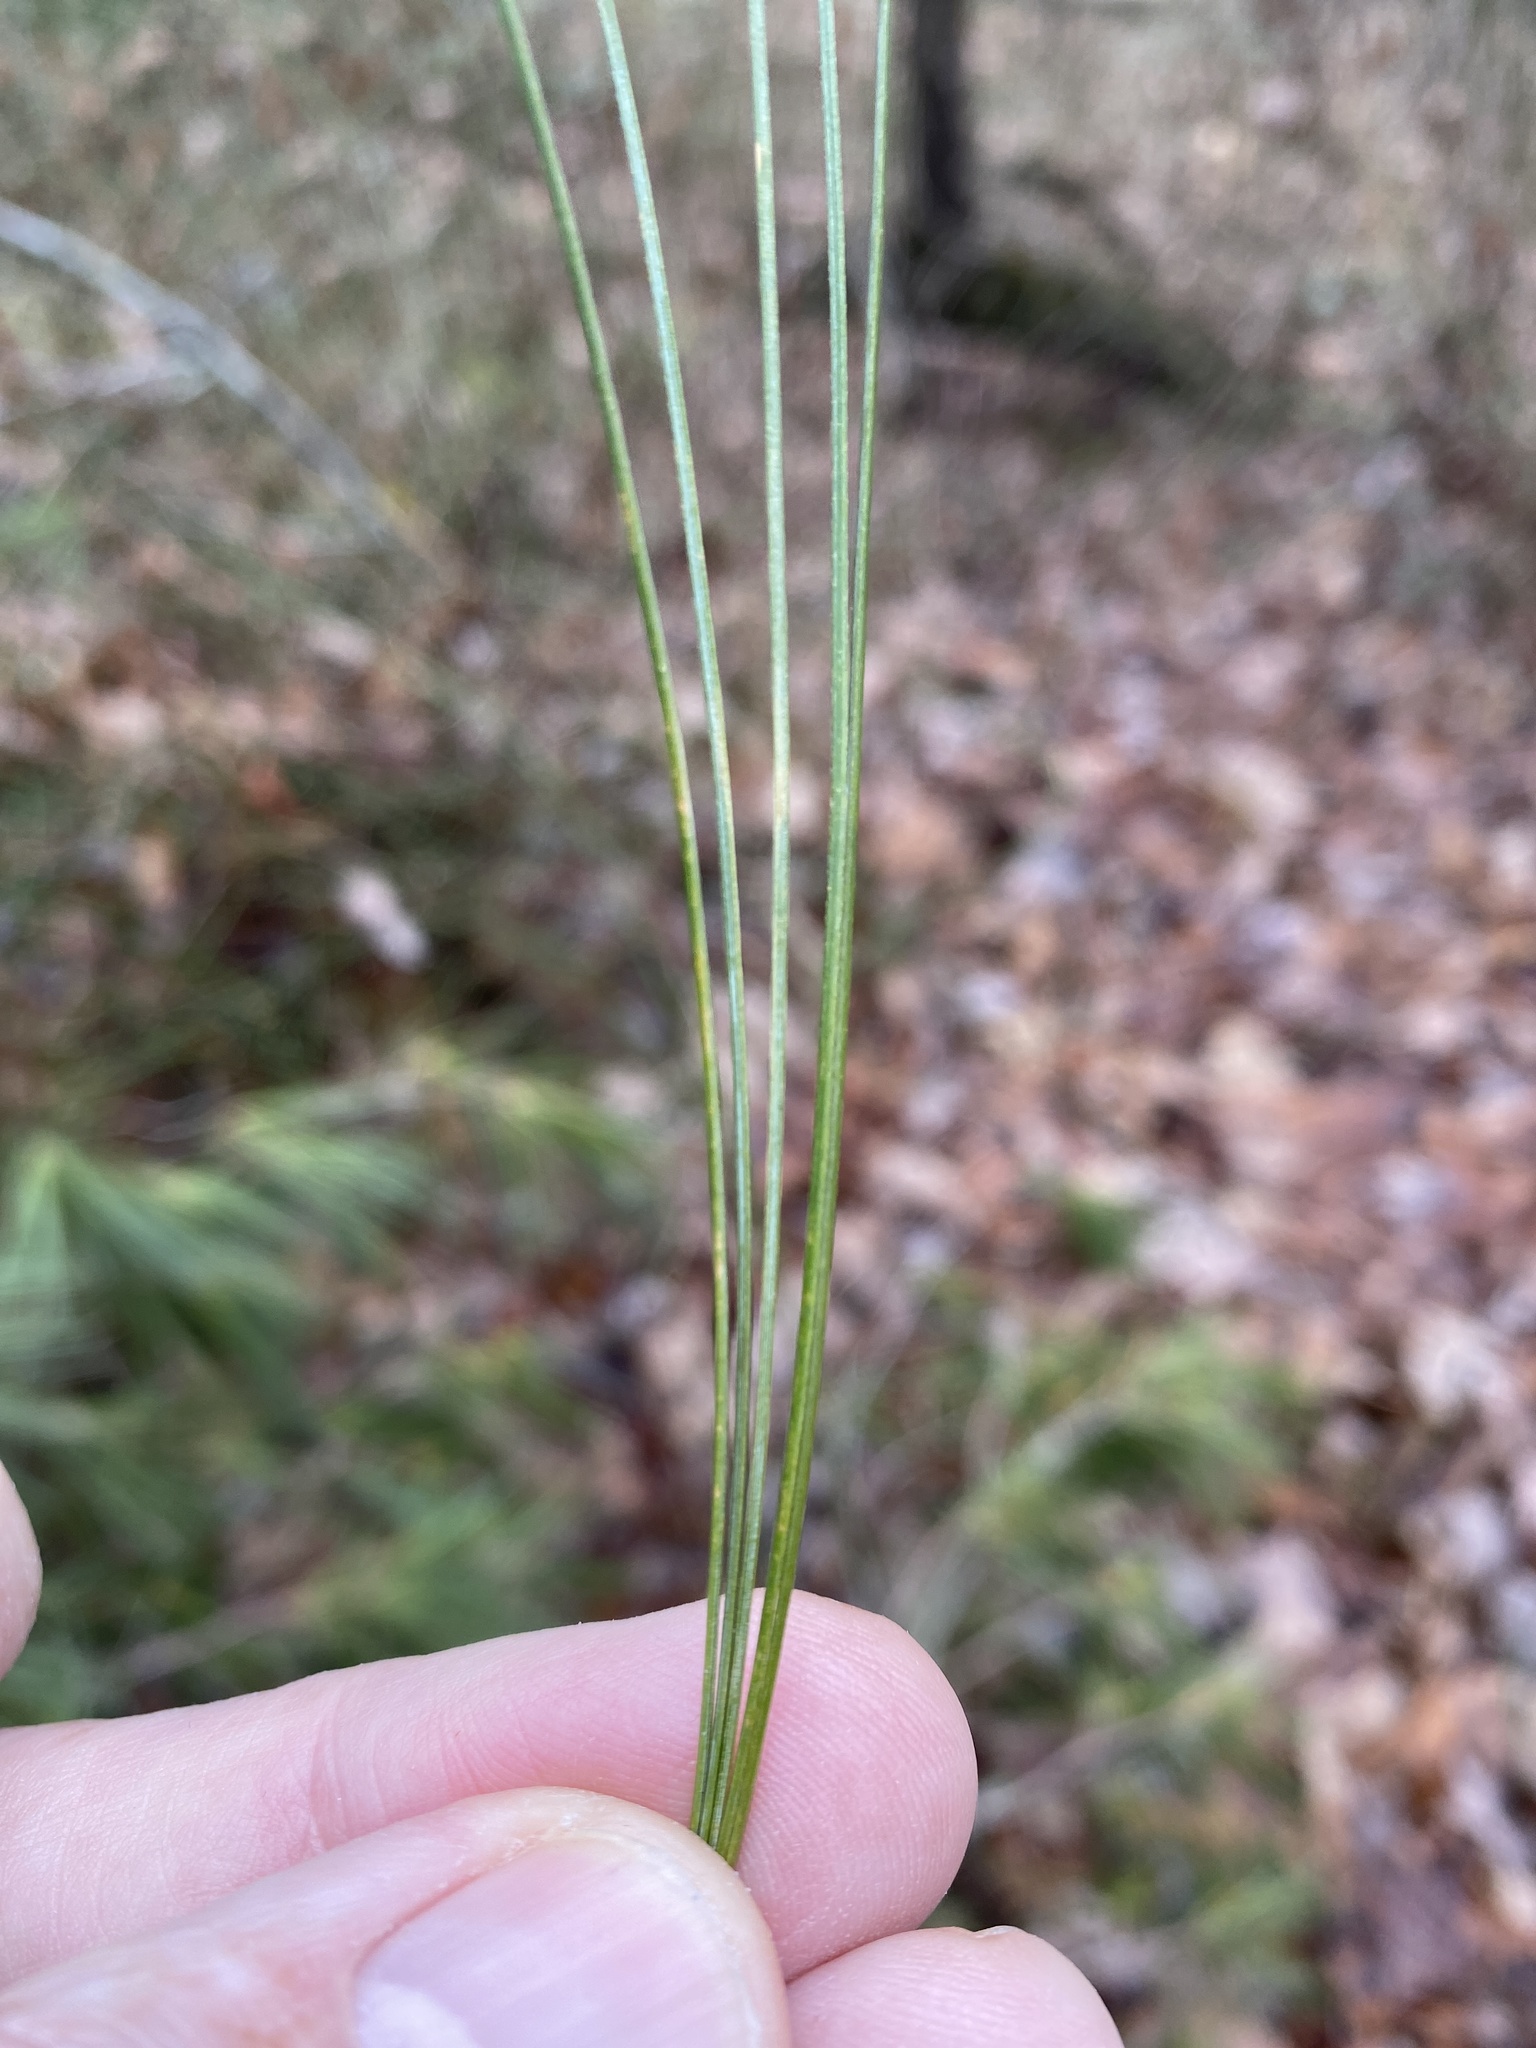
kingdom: Plantae
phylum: Tracheophyta
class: Pinopsida
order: Pinales
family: Pinaceae
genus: Pinus
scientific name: Pinus strobus
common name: Weymouth pine
